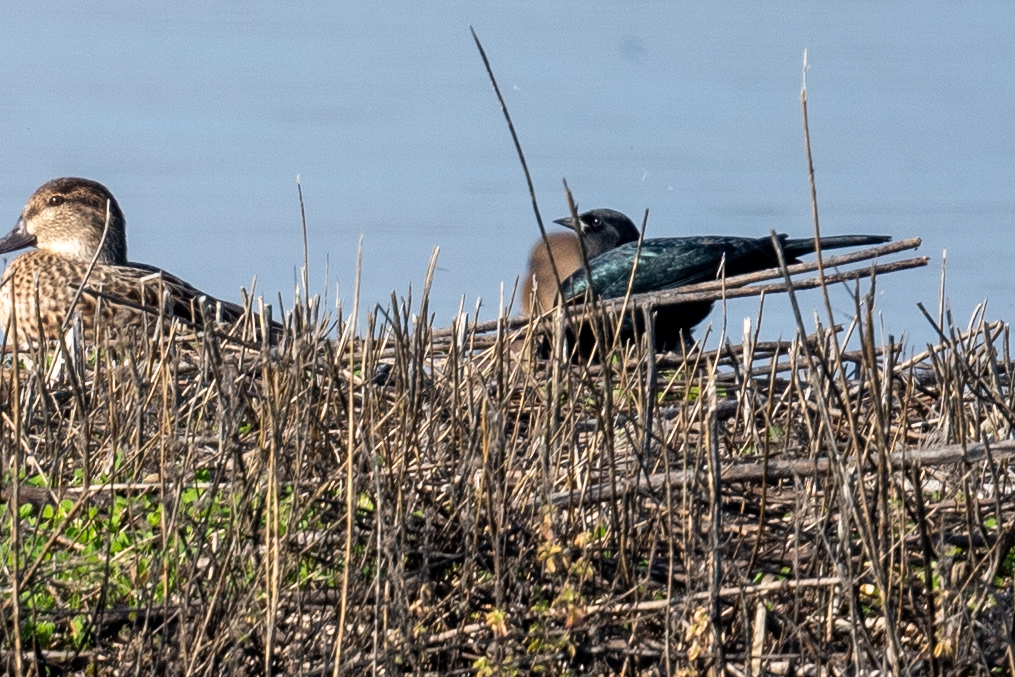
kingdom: Animalia
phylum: Chordata
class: Aves
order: Passeriformes
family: Icteridae
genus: Euphagus
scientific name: Euphagus cyanocephalus
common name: Brewer's blackbird
